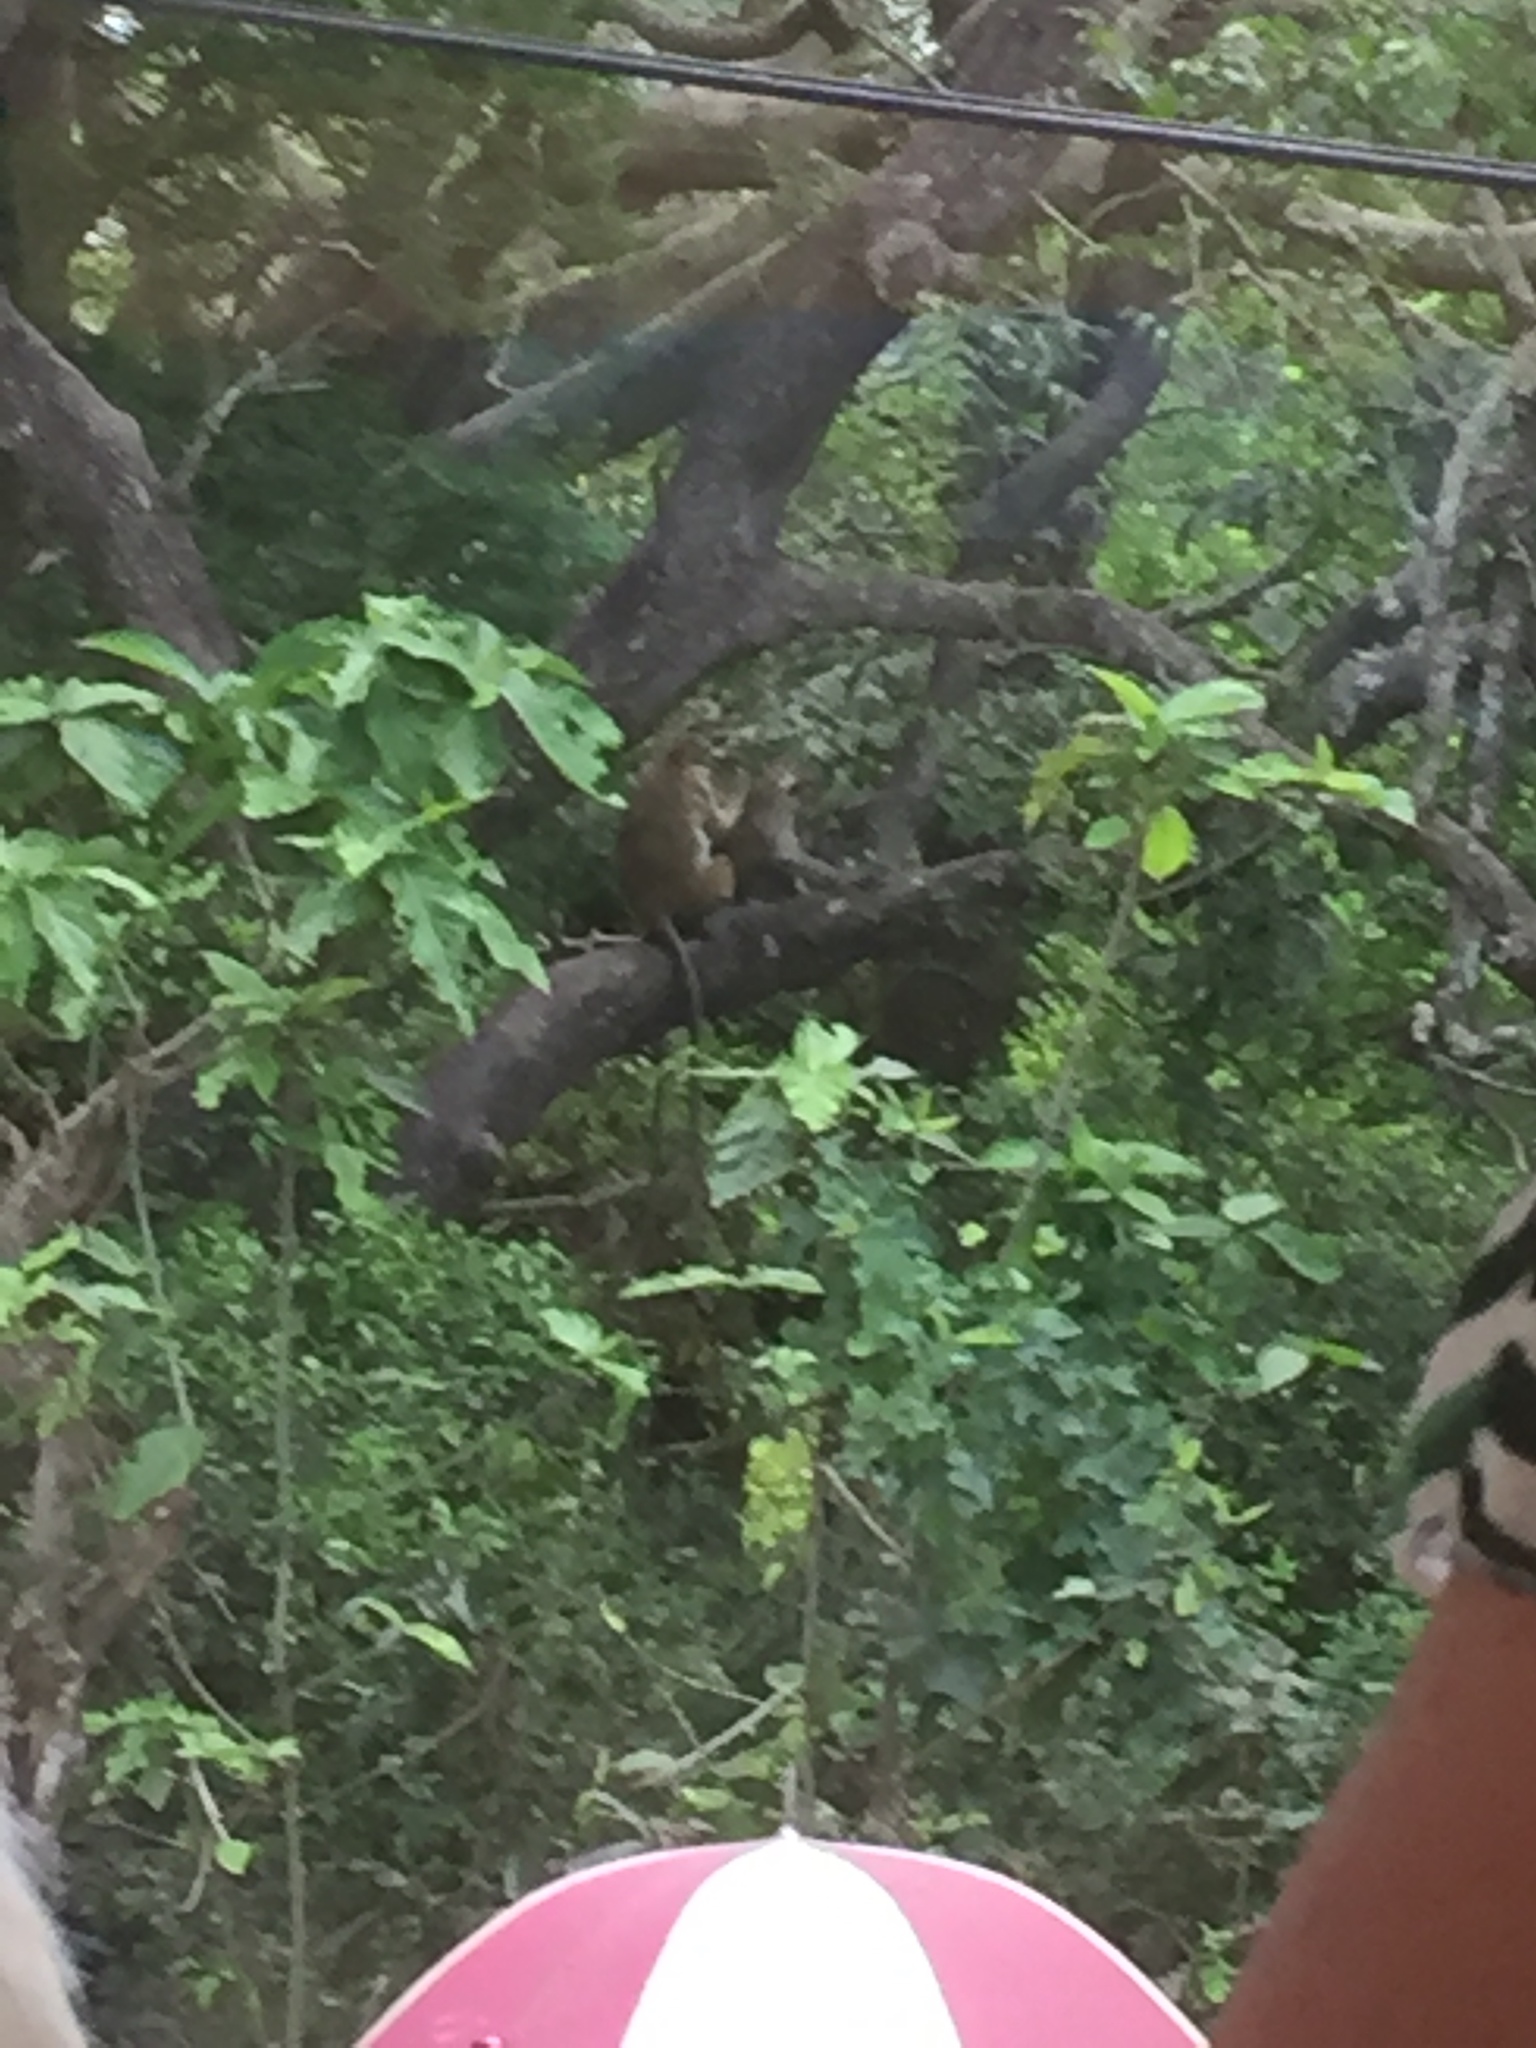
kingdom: Animalia
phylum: Chordata
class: Mammalia
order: Primates
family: Cercopithecidae
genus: Macaca
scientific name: Macaca sinica
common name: Toque macaque
